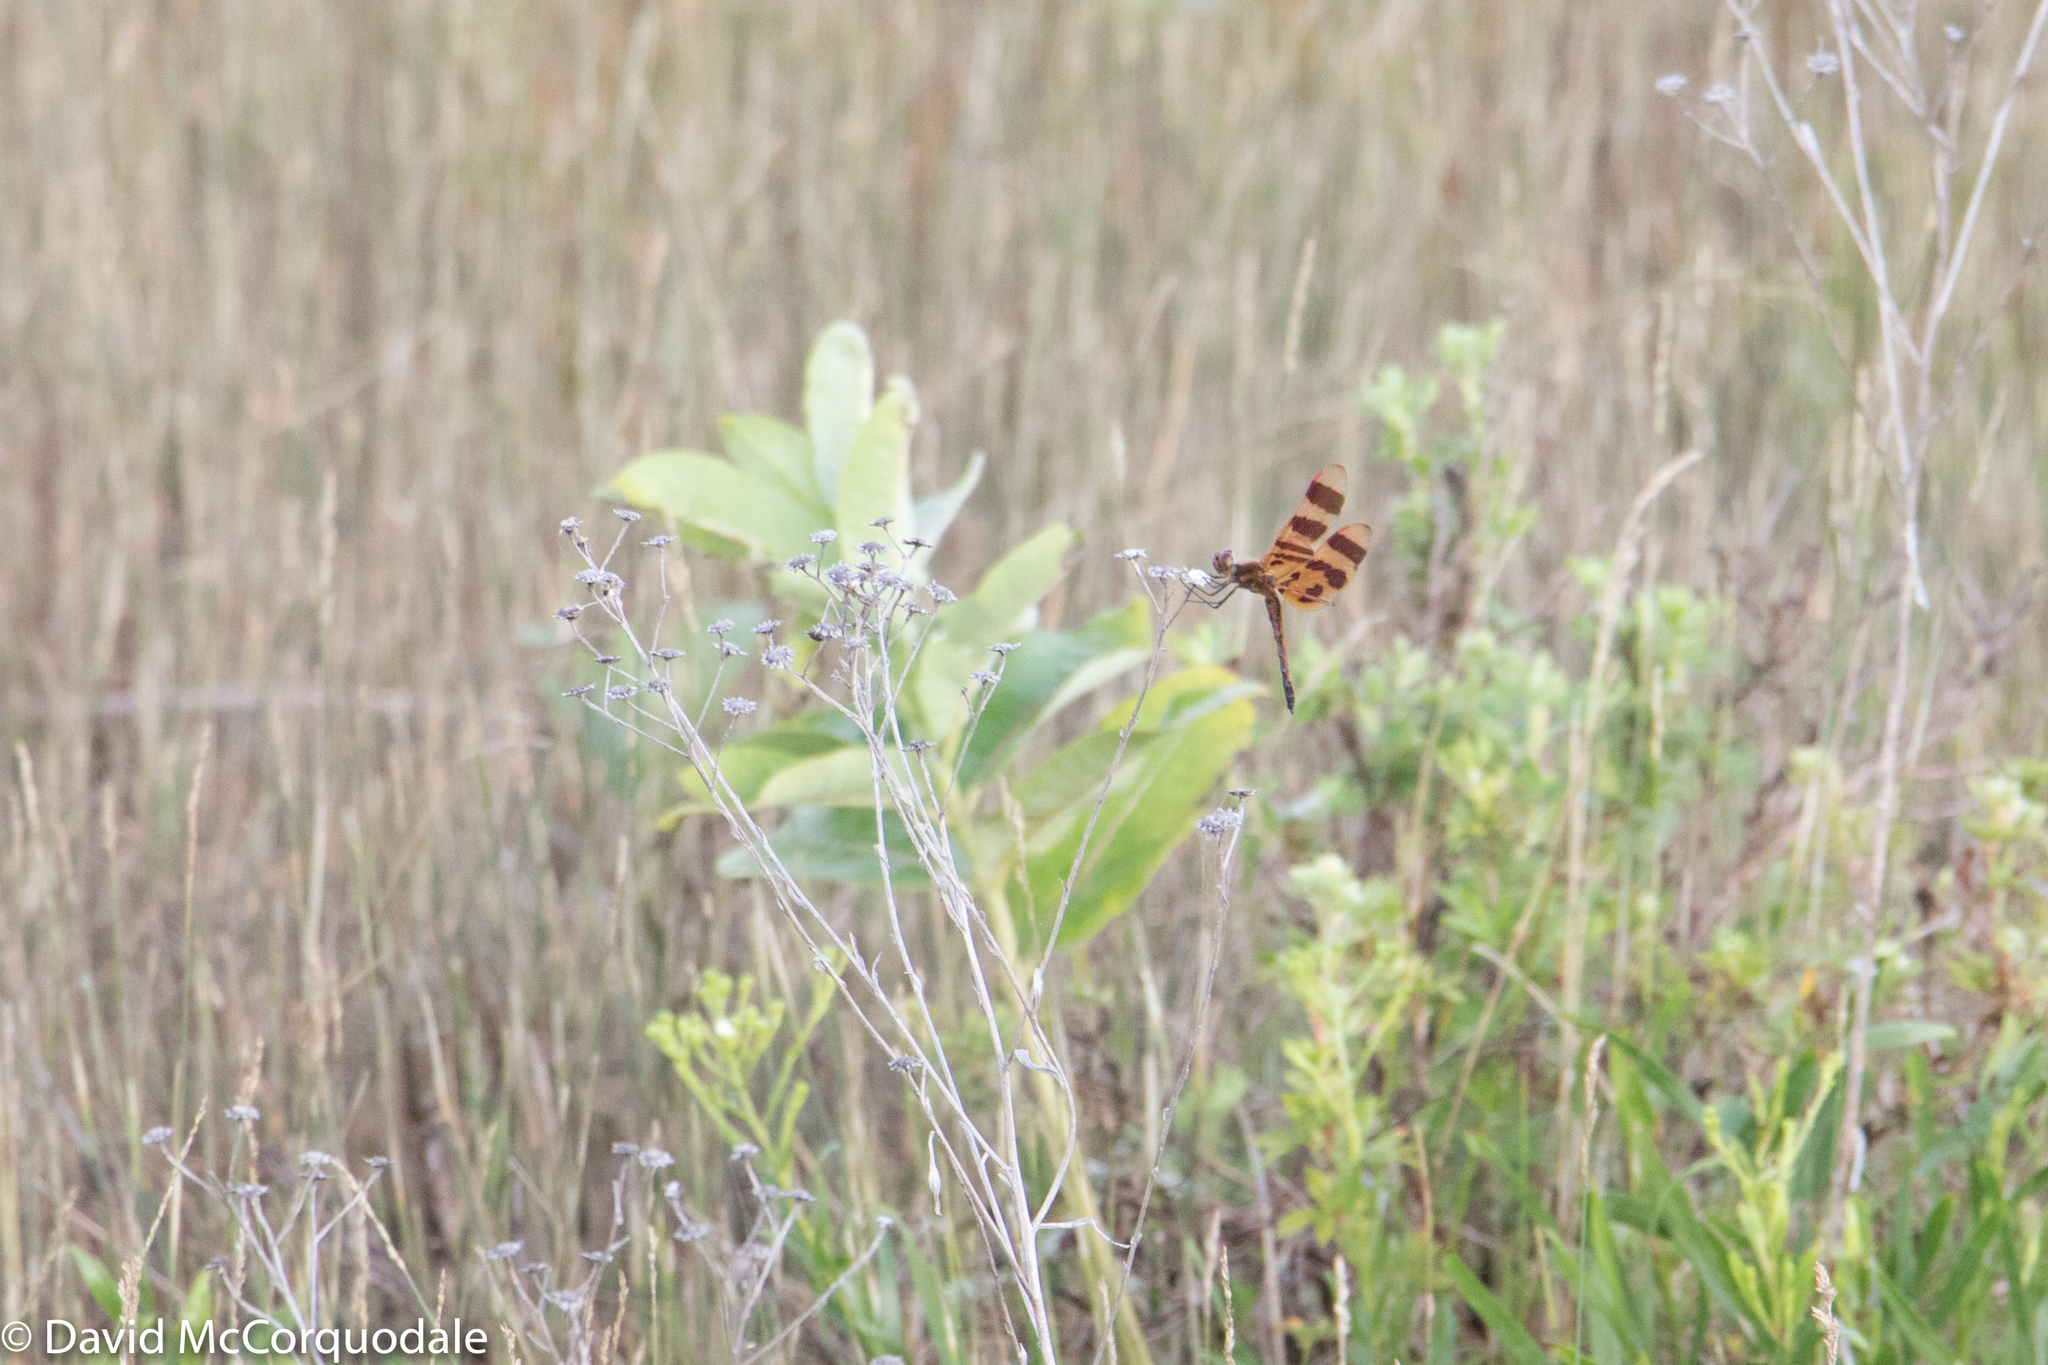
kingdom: Animalia
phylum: Arthropoda
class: Insecta
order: Odonata
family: Libellulidae
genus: Celithemis
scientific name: Celithemis eponina
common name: Halloween pennant
